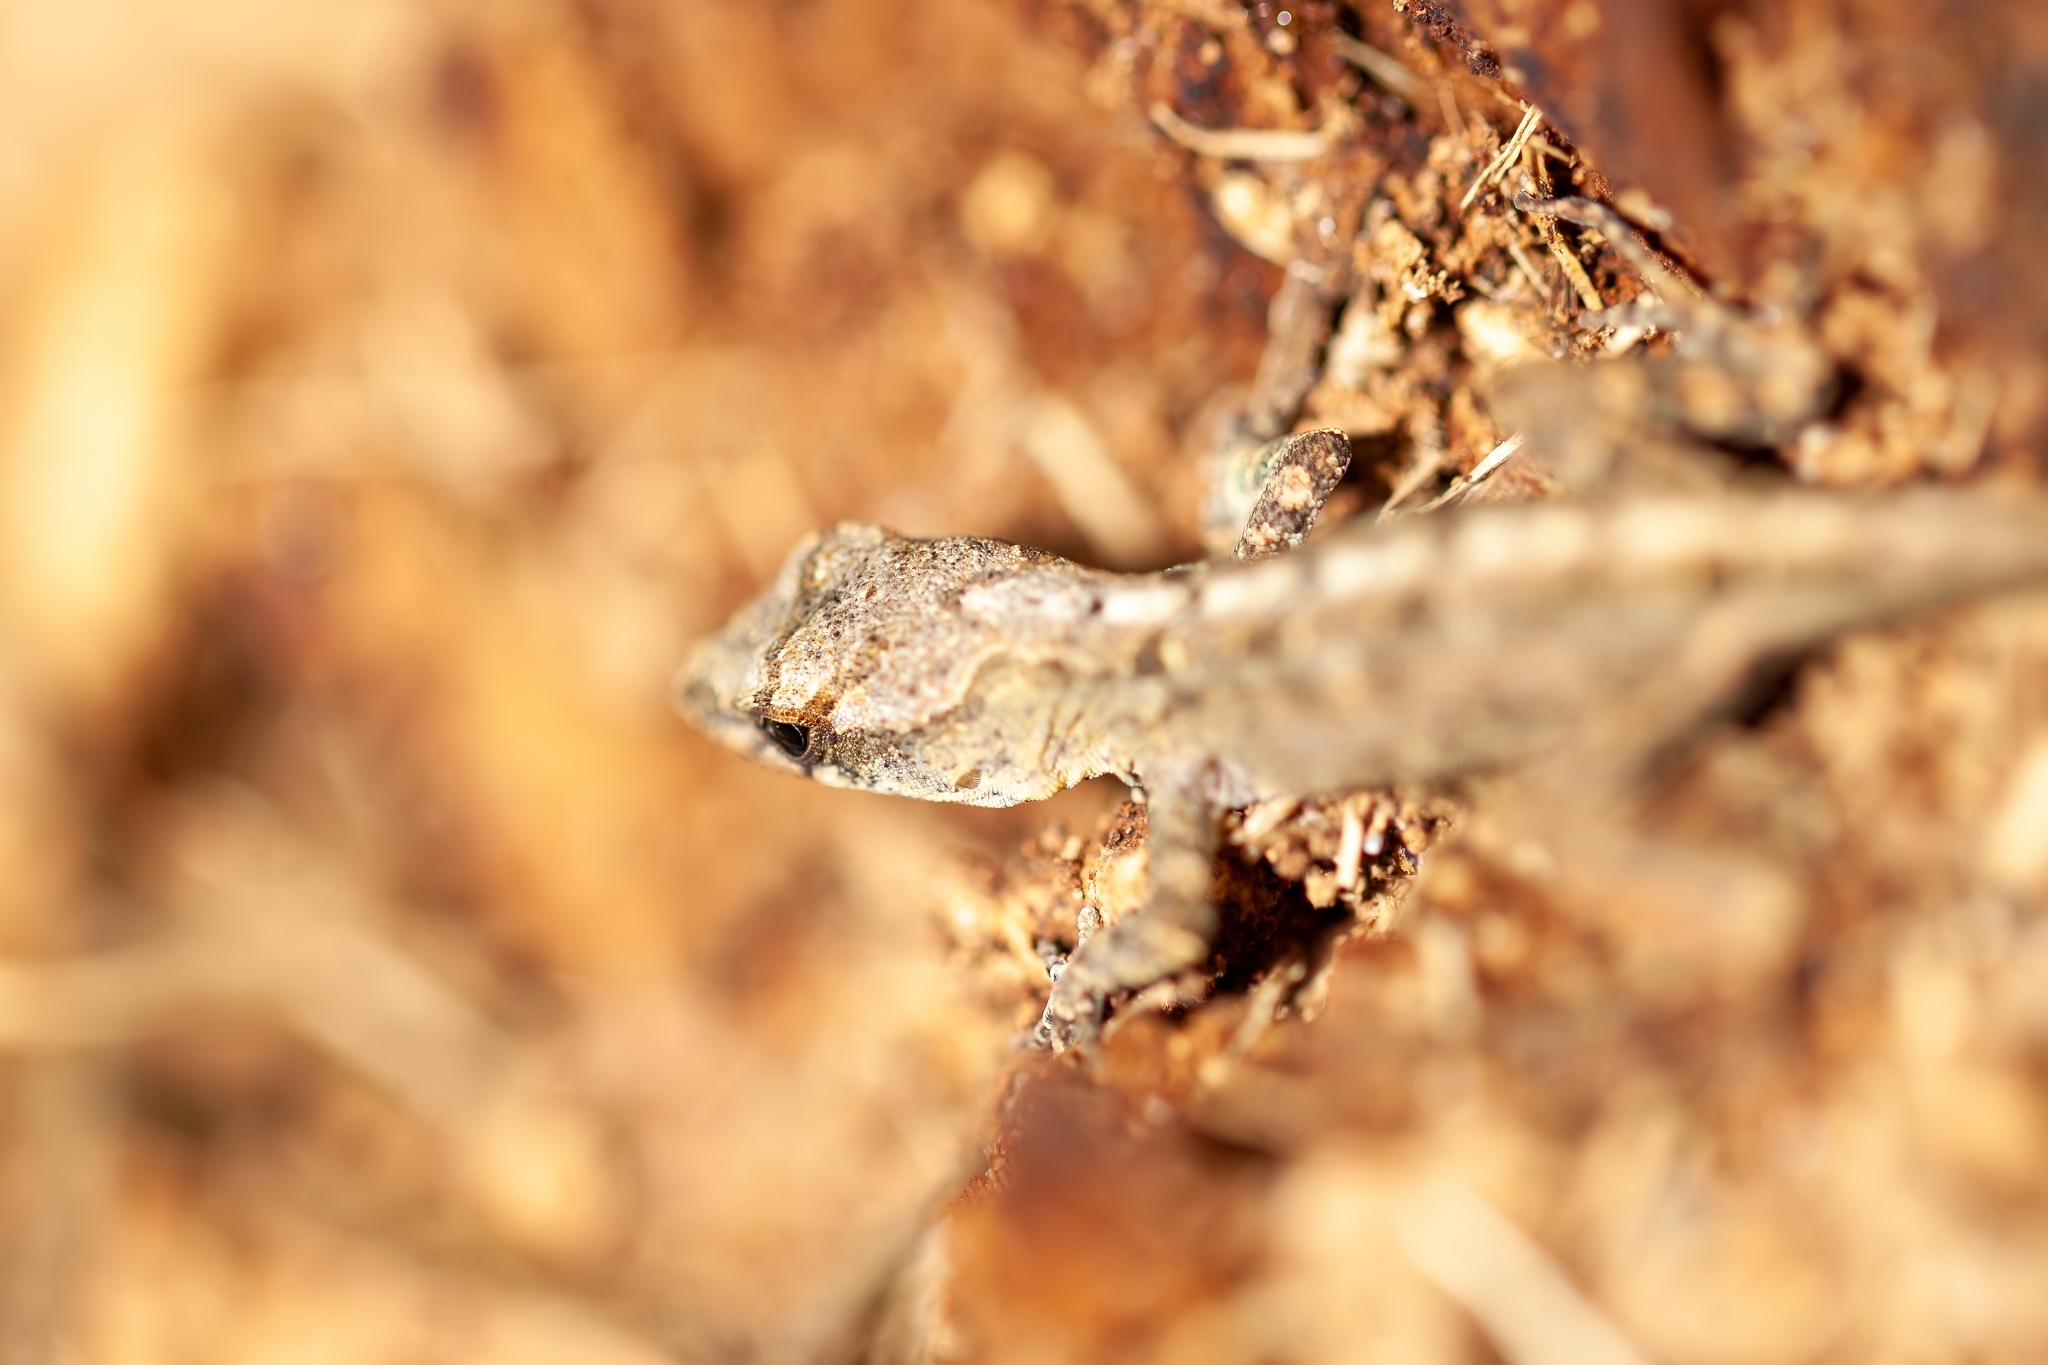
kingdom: Animalia
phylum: Chordata
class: Squamata
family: Dactyloidae
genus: Anolis
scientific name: Anolis sagrei
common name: Brown anole
